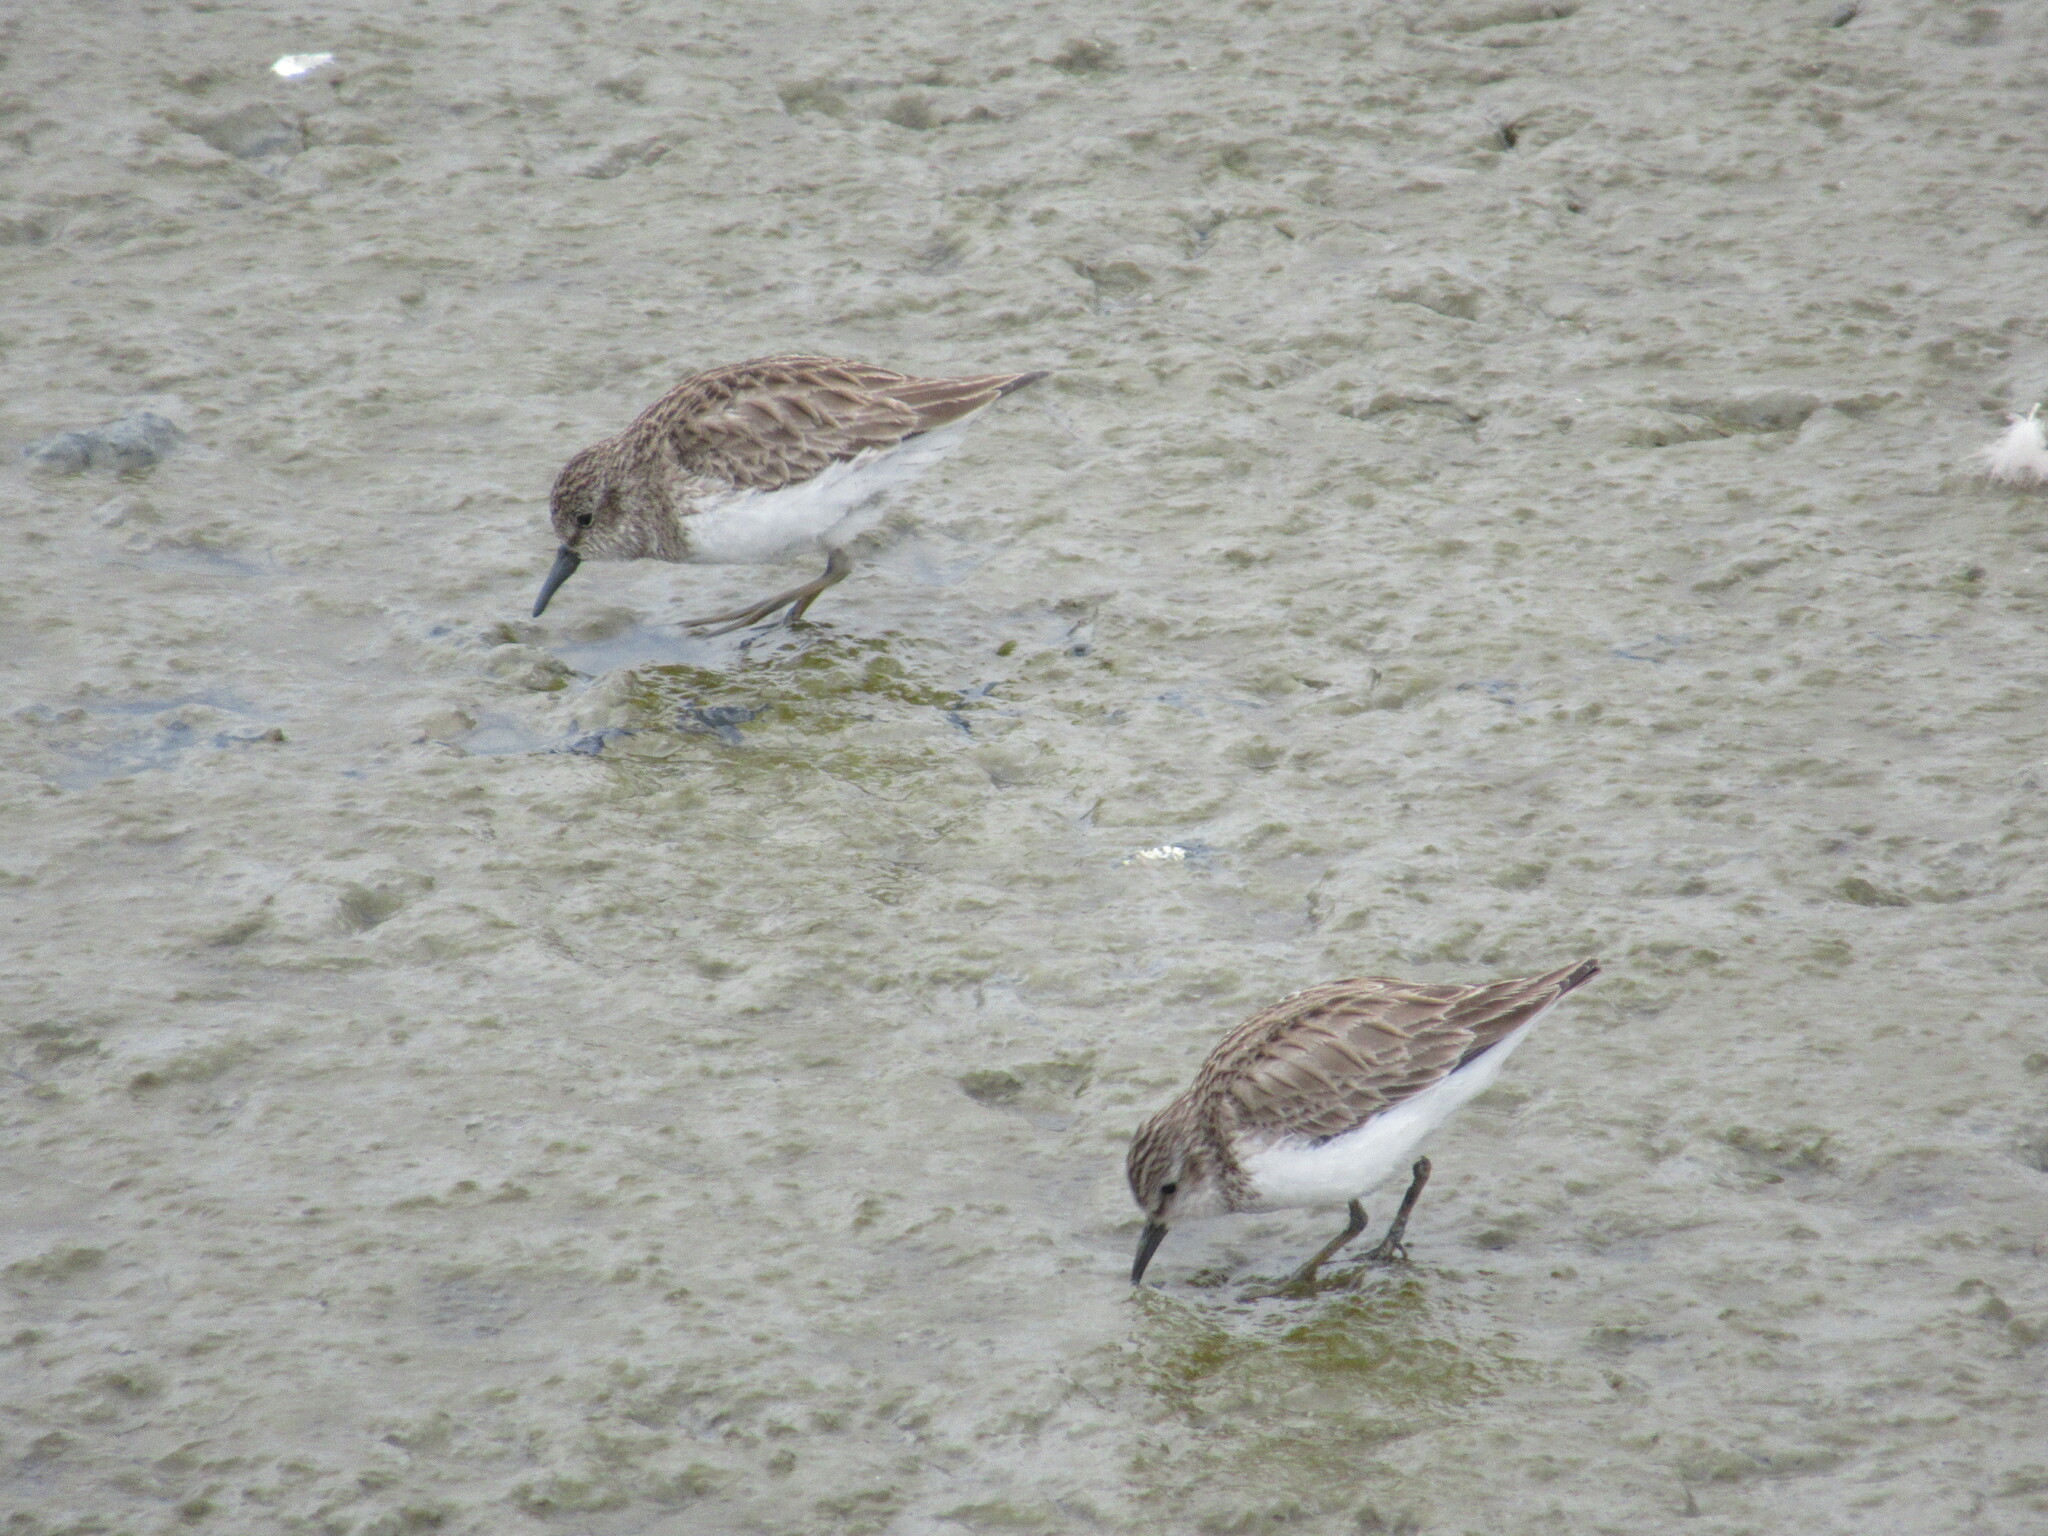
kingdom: Animalia
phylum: Chordata
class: Aves
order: Charadriiformes
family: Scolopacidae
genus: Calidris
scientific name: Calidris minutilla
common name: Least sandpiper
